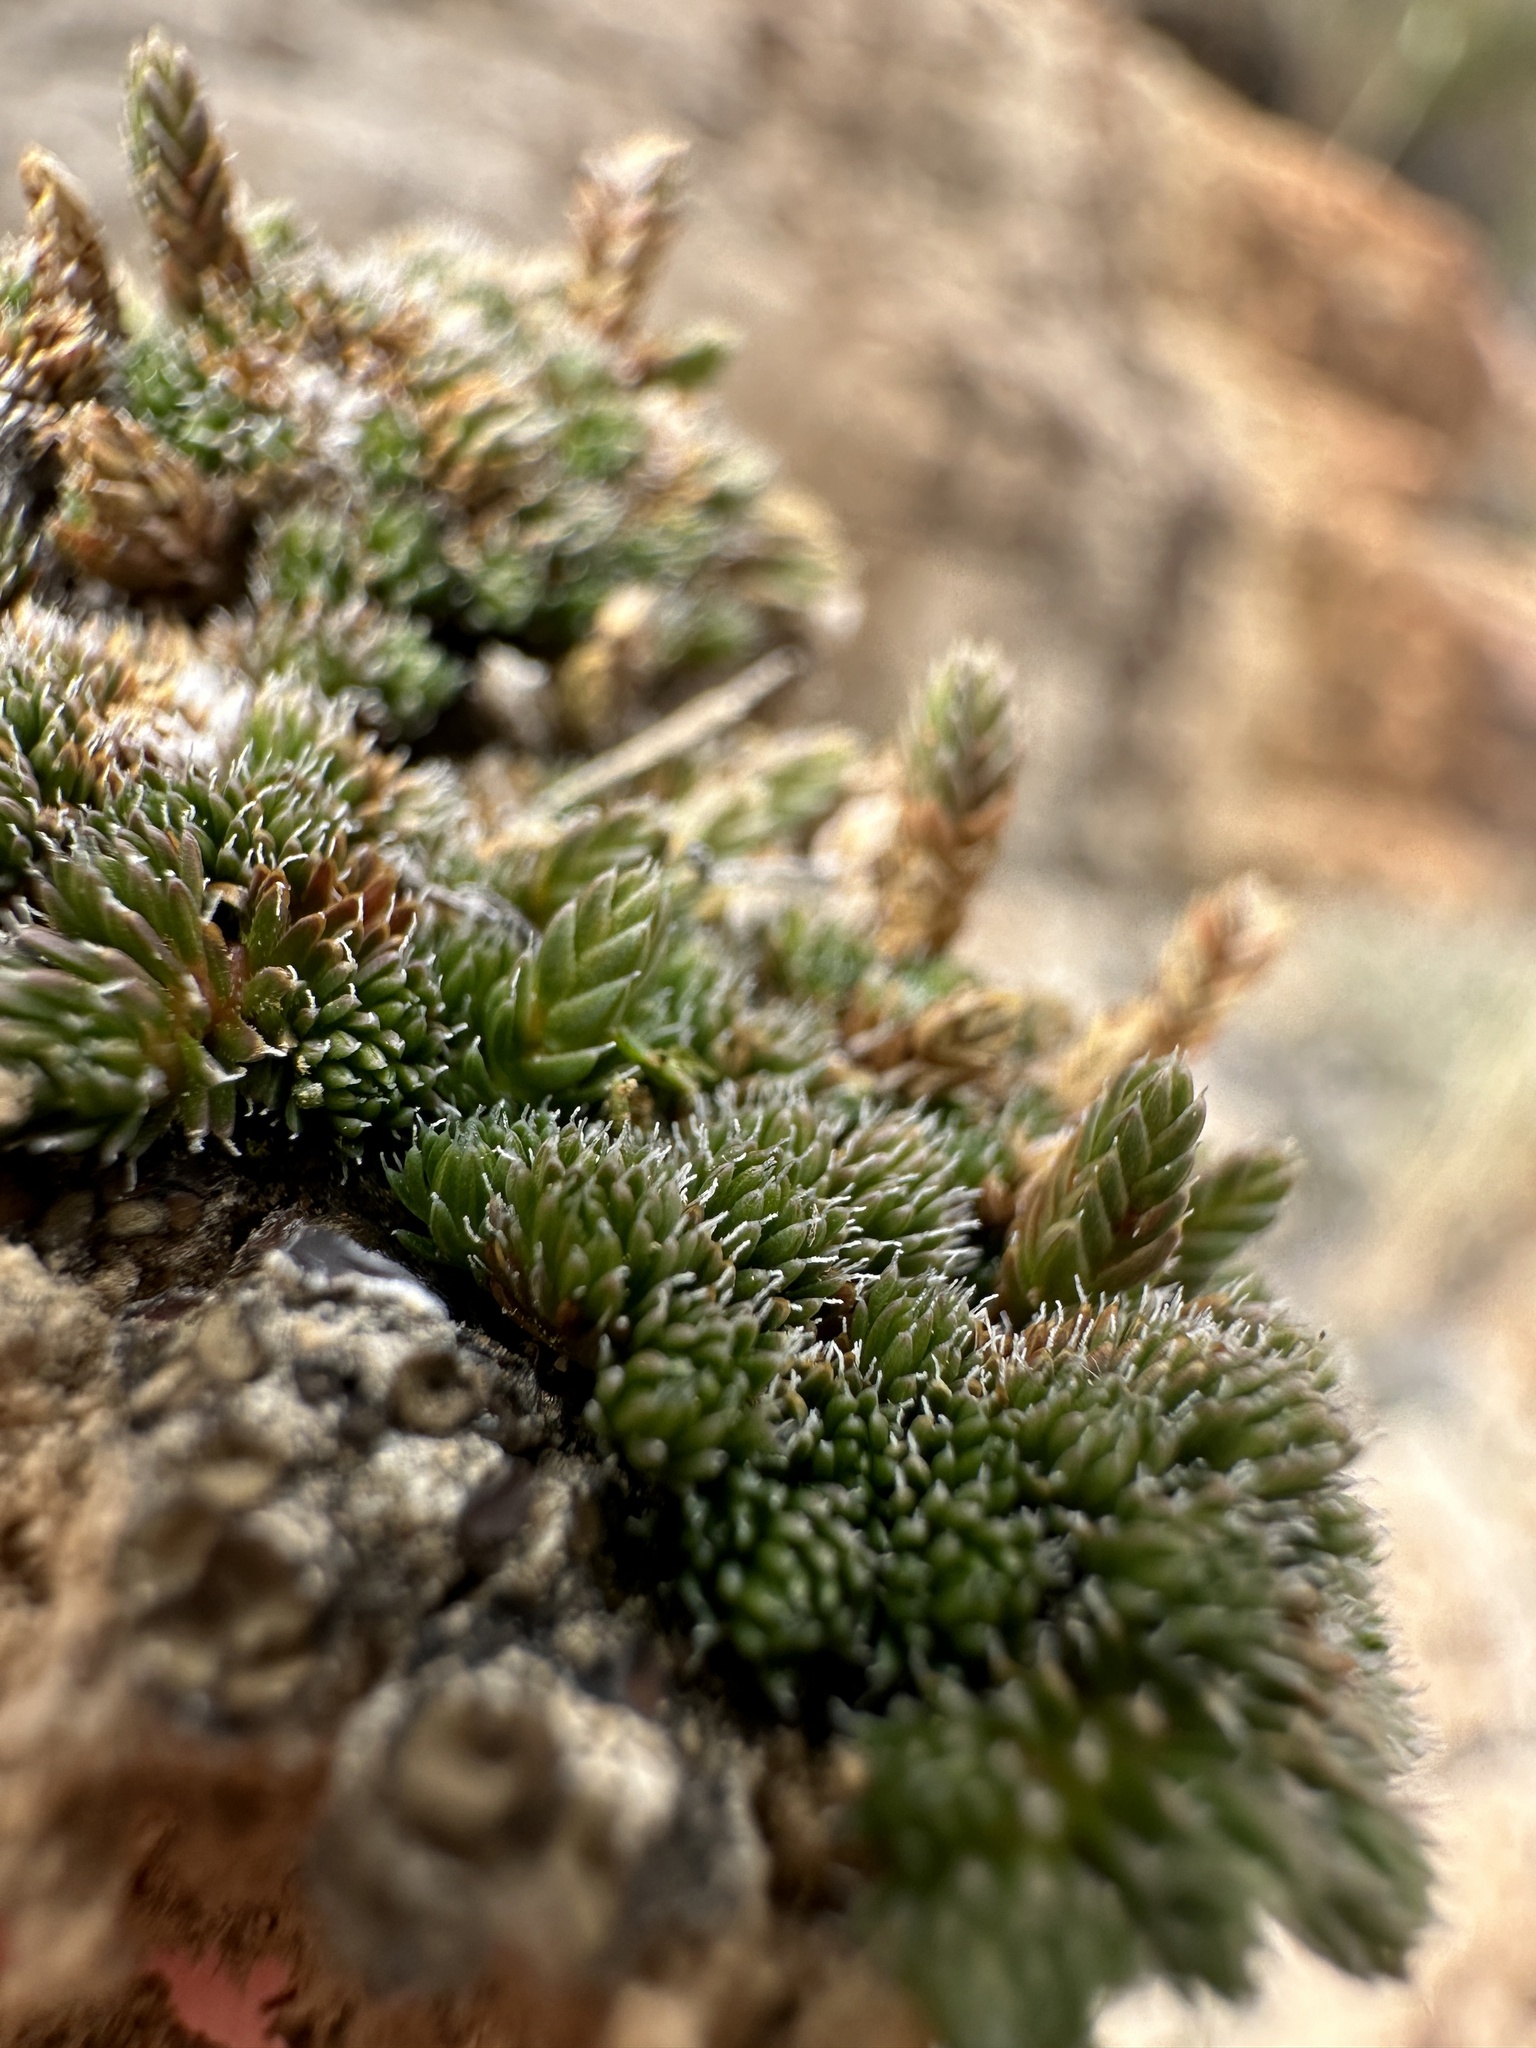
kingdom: Plantae
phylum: Tracheophyta
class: Lycopodiopsida
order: Selaginellales
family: Selaginellaceae
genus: Selaginella
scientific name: Selaginella leucobryoides
